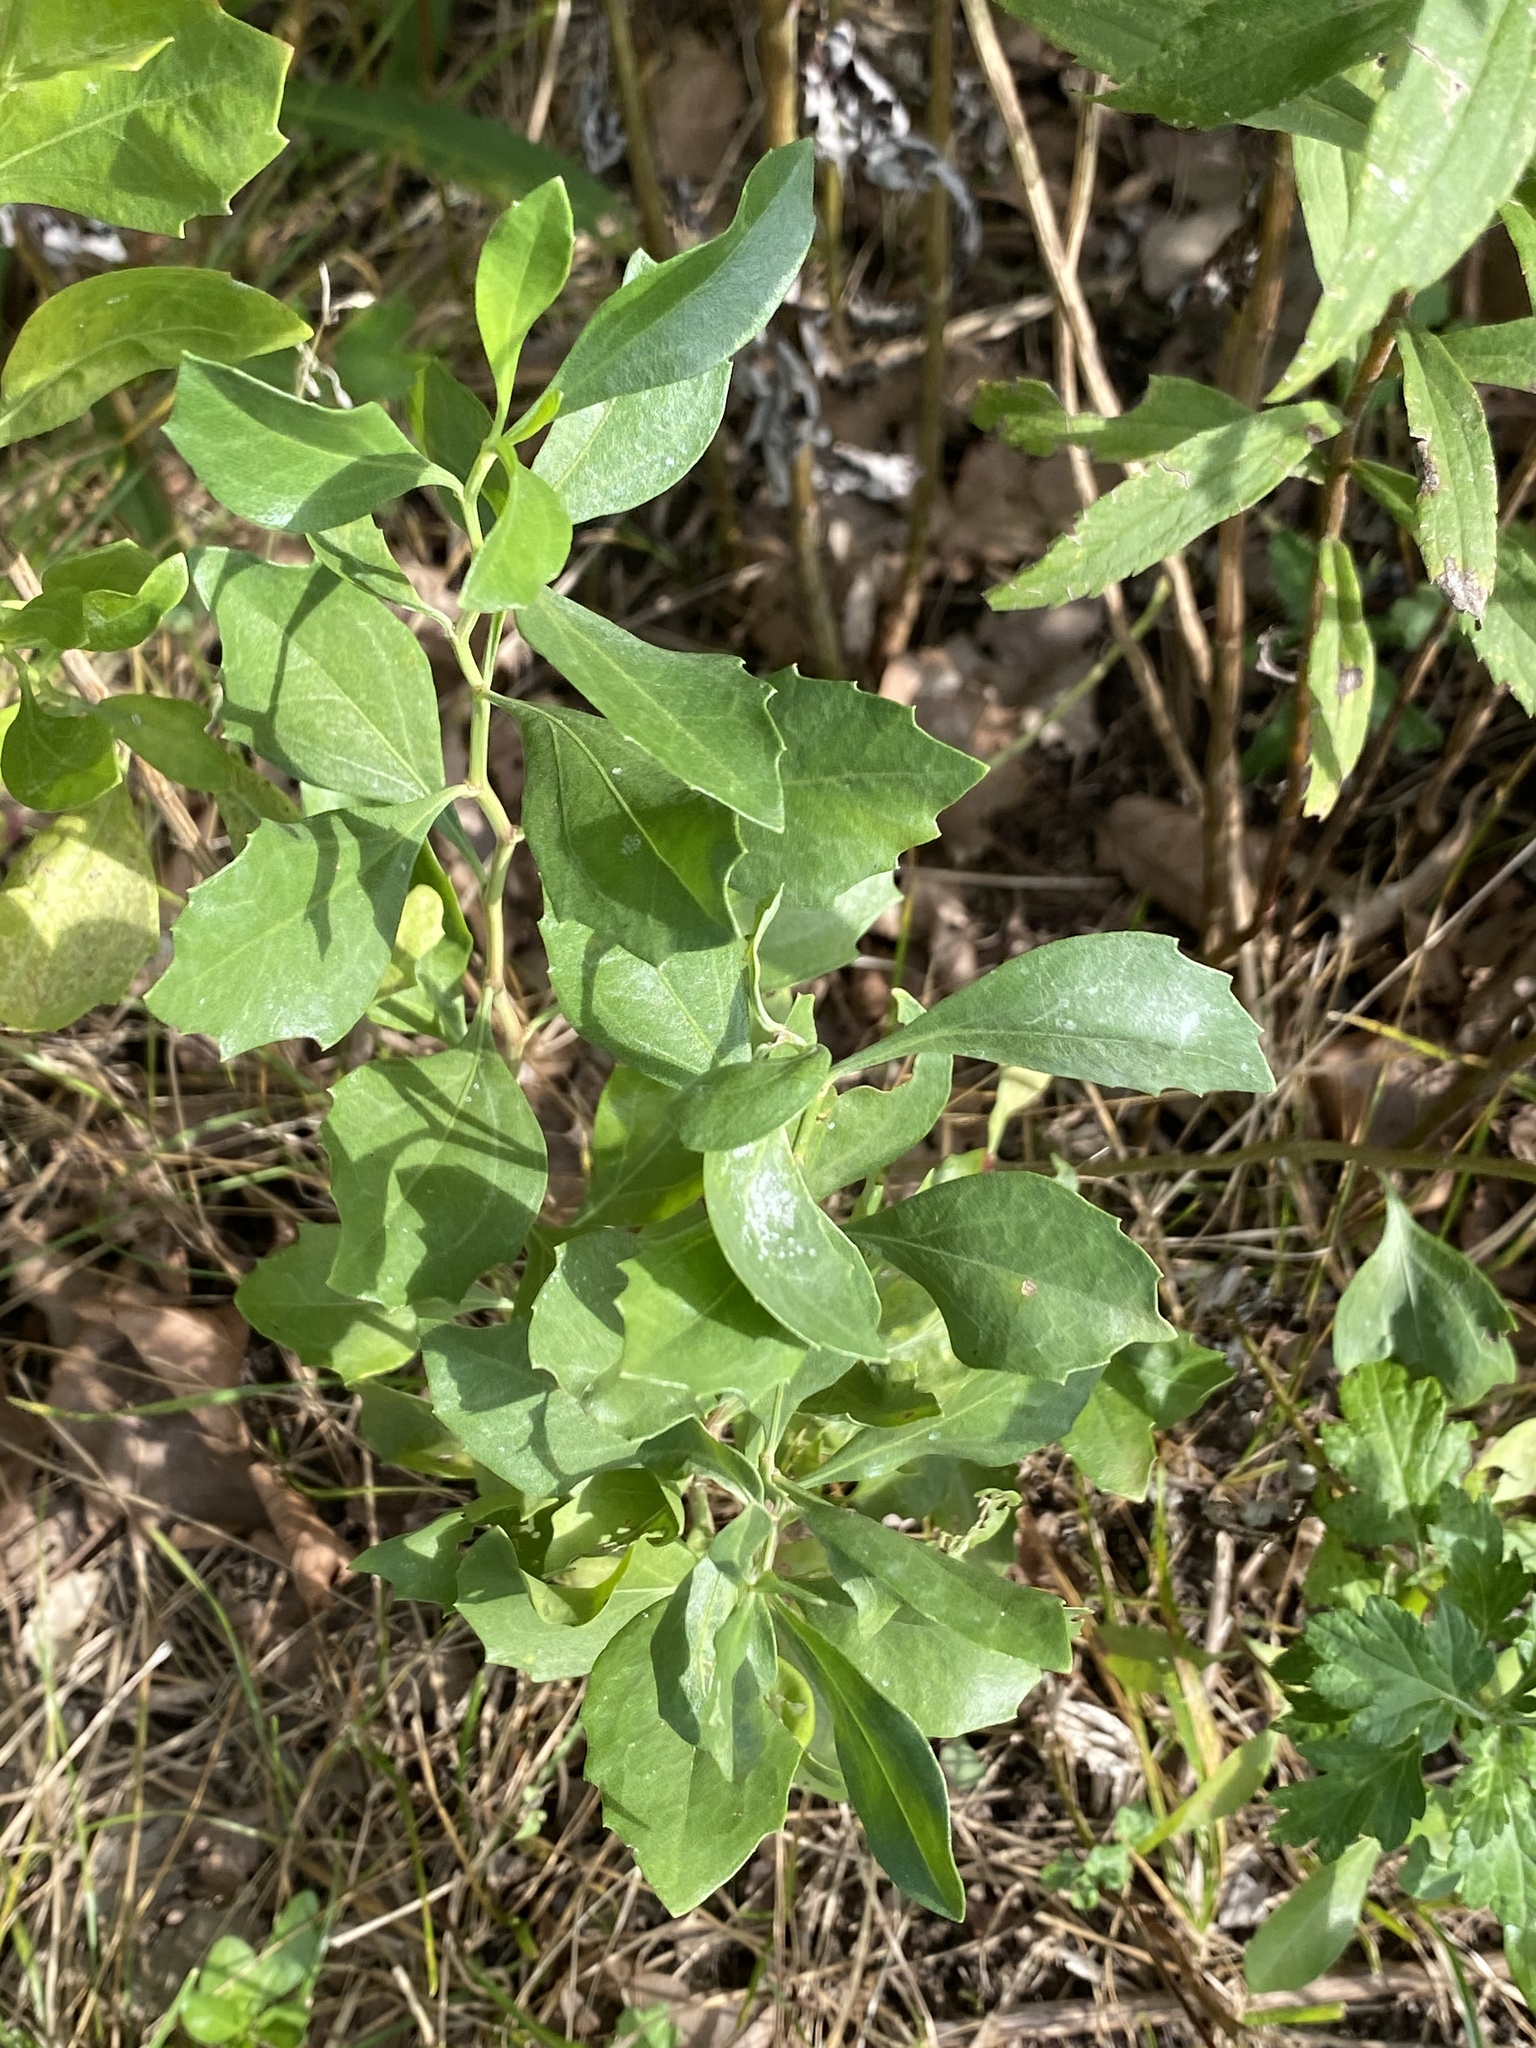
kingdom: Plantae
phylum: Tracheophyta
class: Magnoliopsida
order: Asterales
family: Asteraceae
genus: Baccharis
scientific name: Baccharis halimifolia
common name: Eastern baccharis
